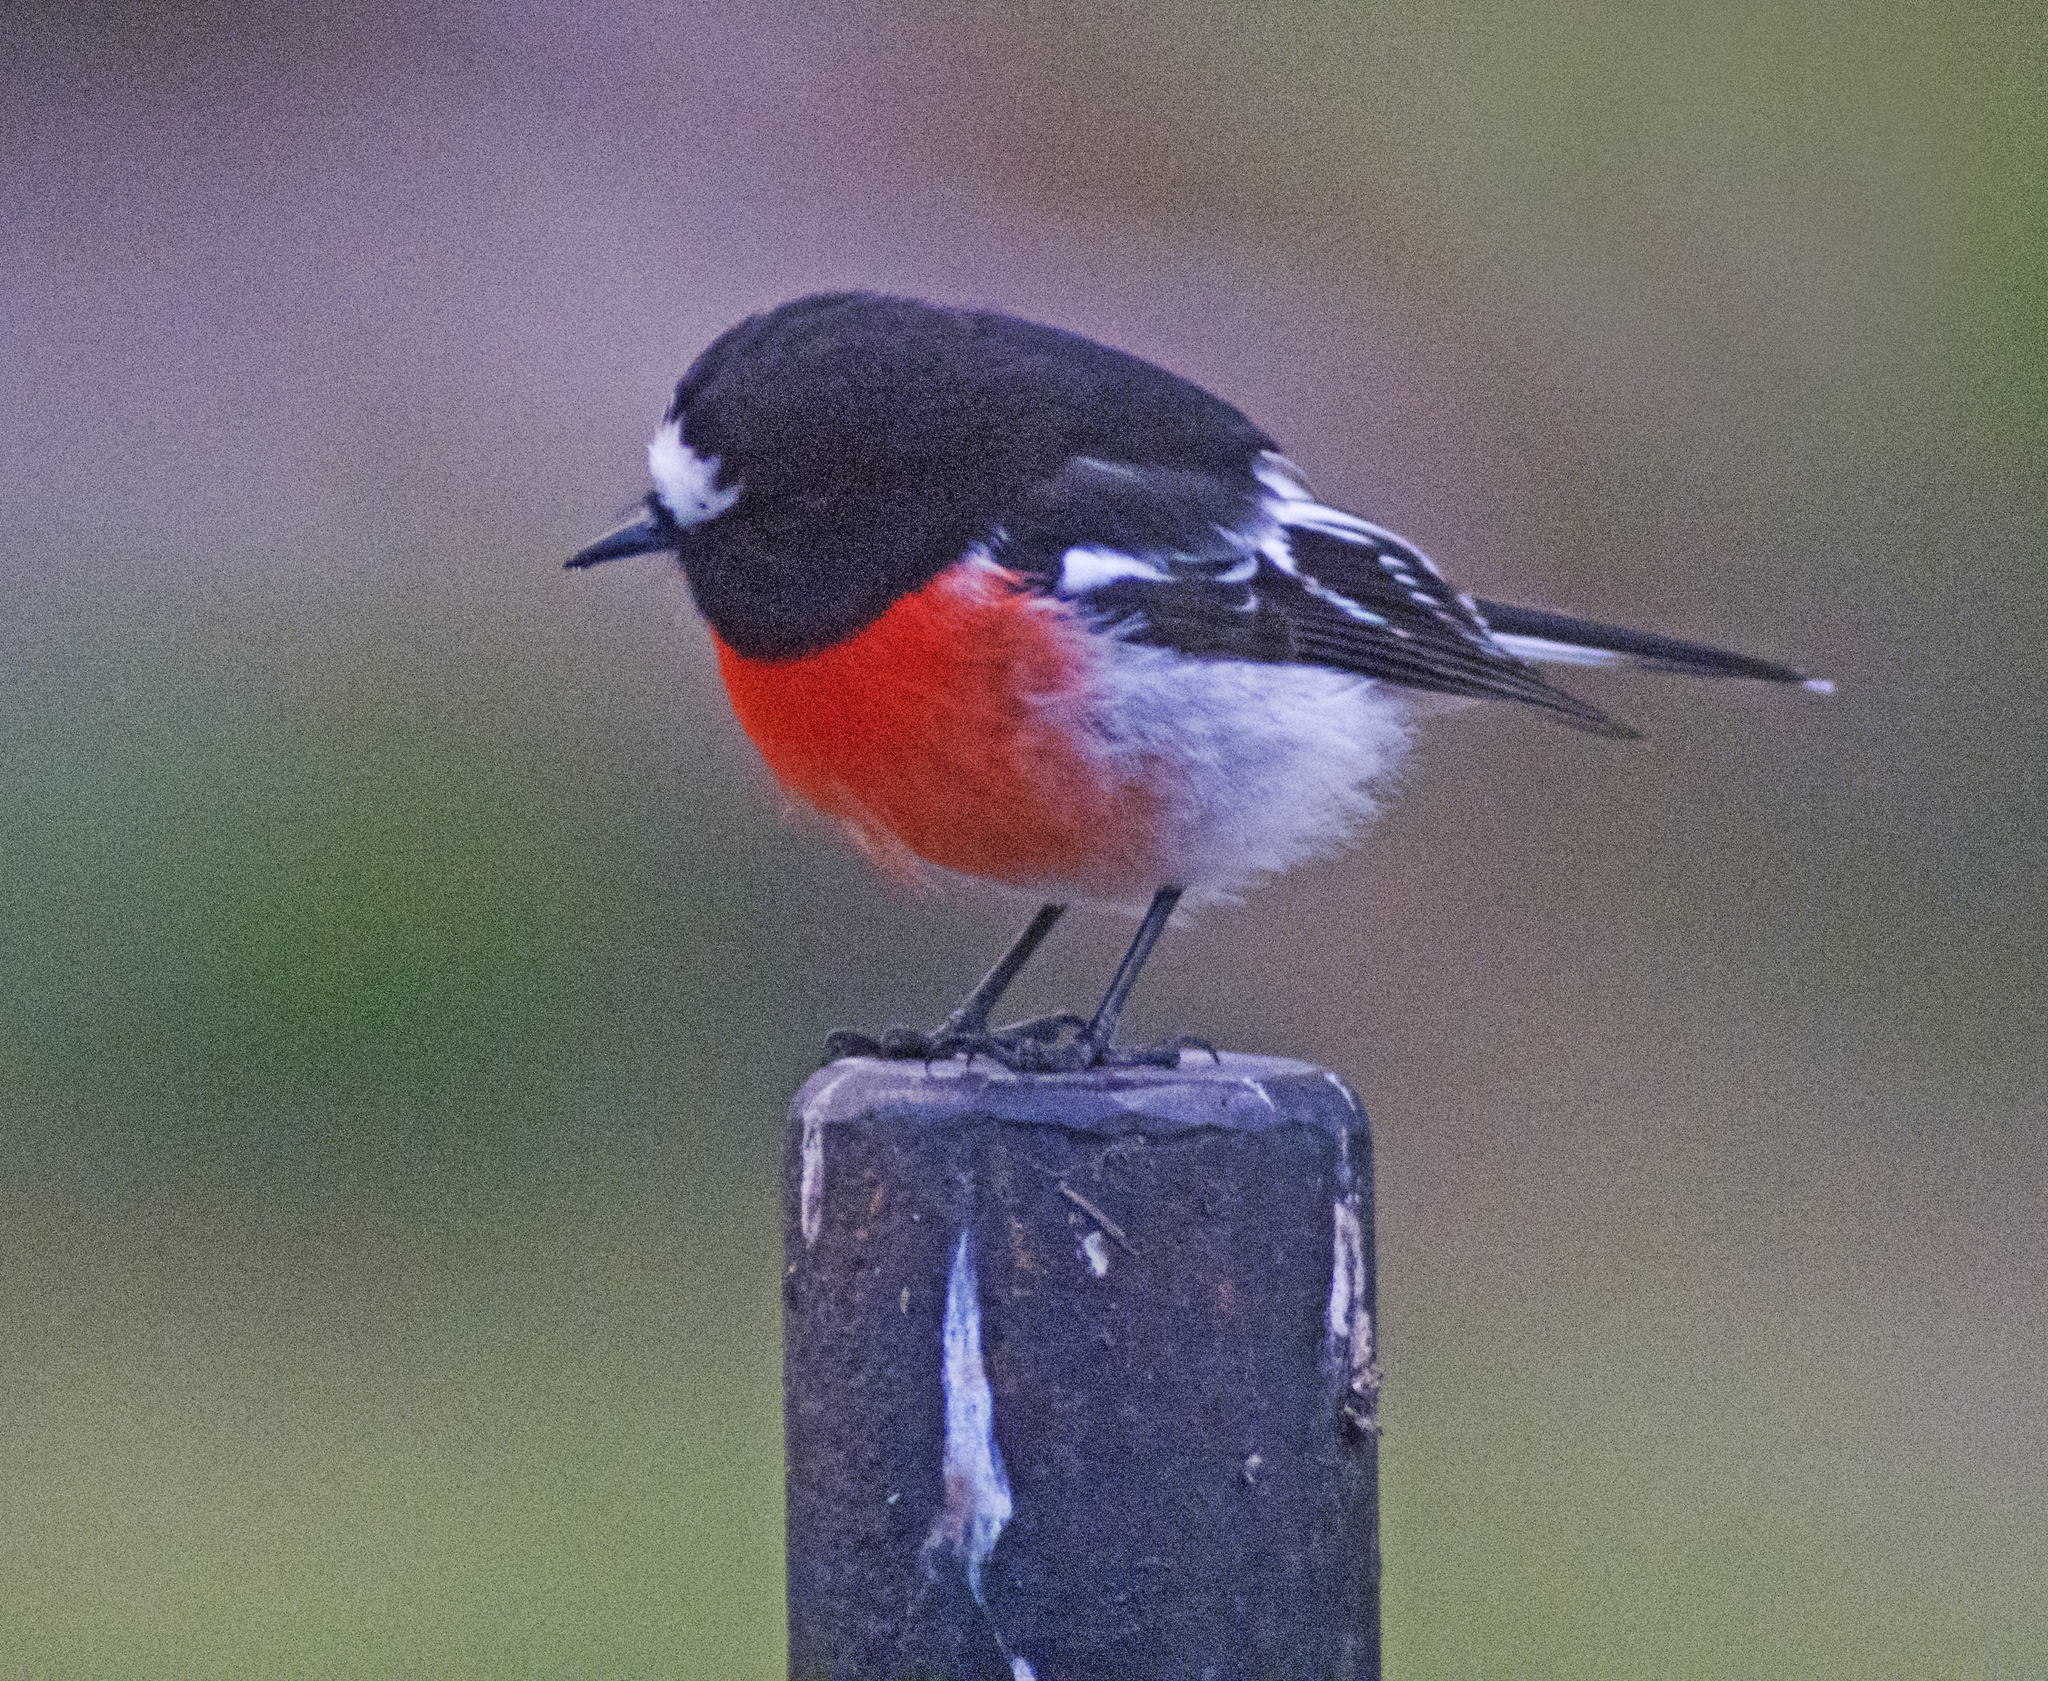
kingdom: Animalia
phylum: Chordata
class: Aves
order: Passeriformes
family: Petroicidae
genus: Petroica
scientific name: Petroica boodang
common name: Scarlet robin
